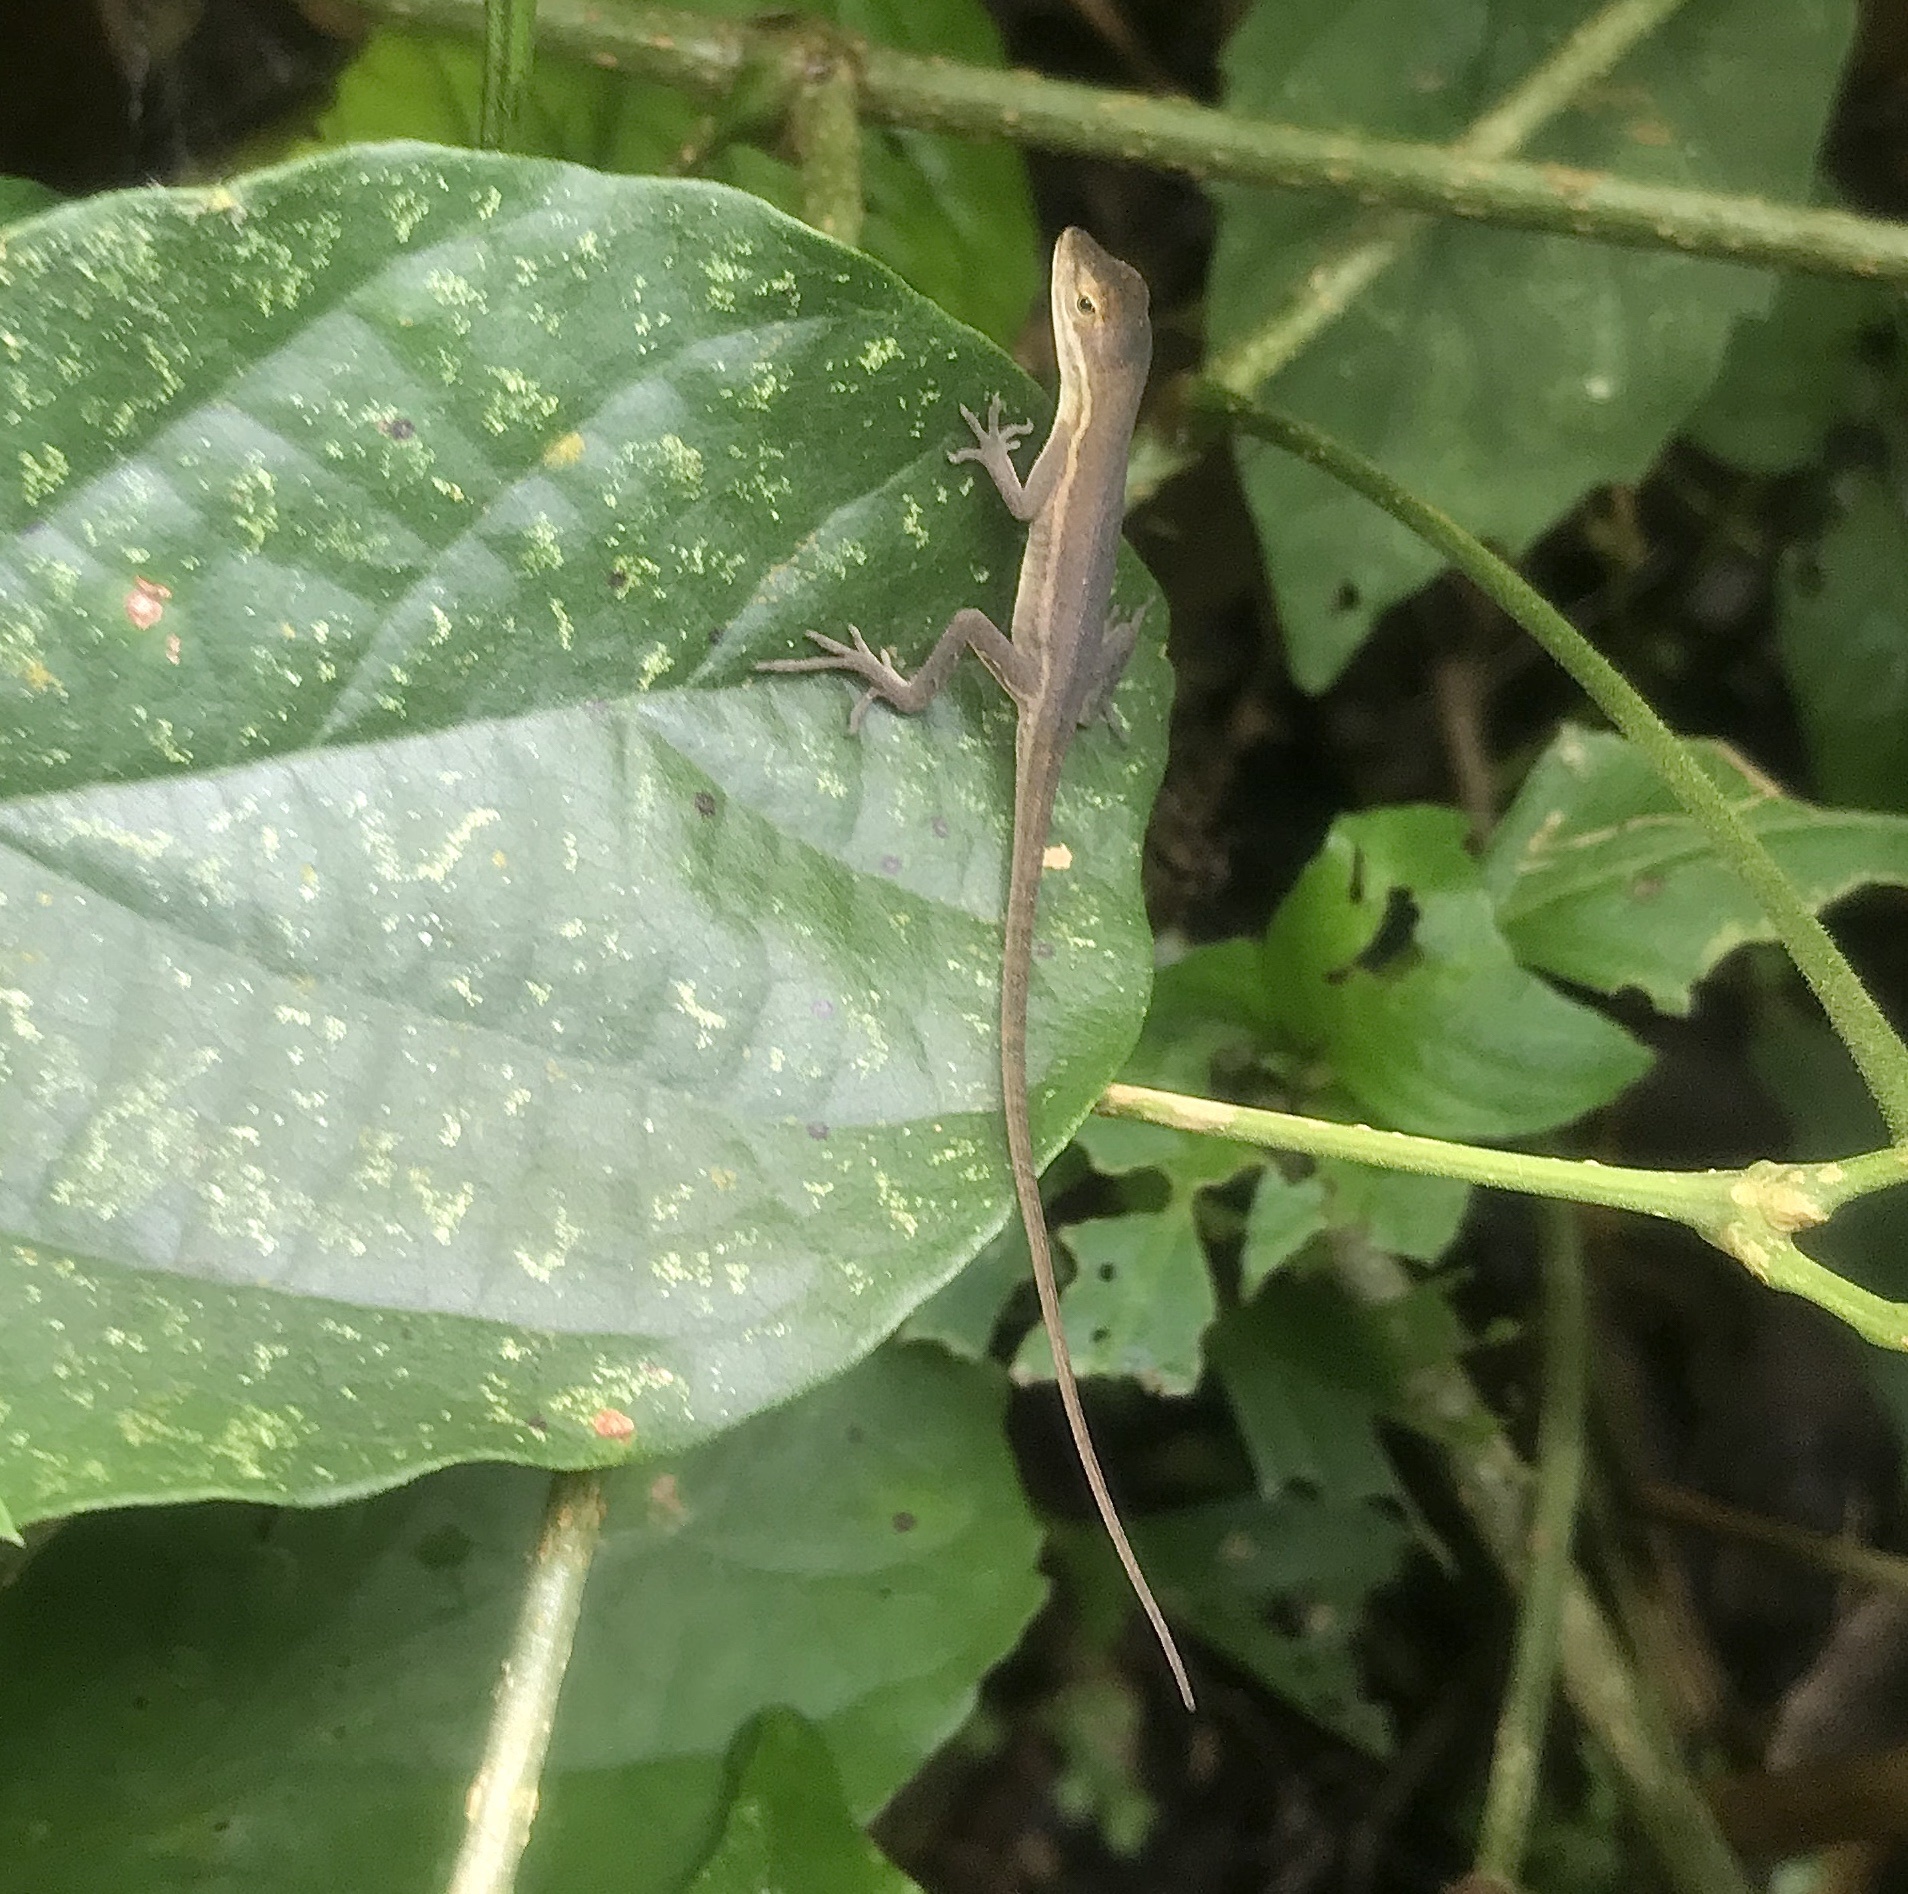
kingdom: Animalia
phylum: Chordata
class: Squamata
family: Dactyloidae
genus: Anolis
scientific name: Anolis auratus
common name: Grass anole
